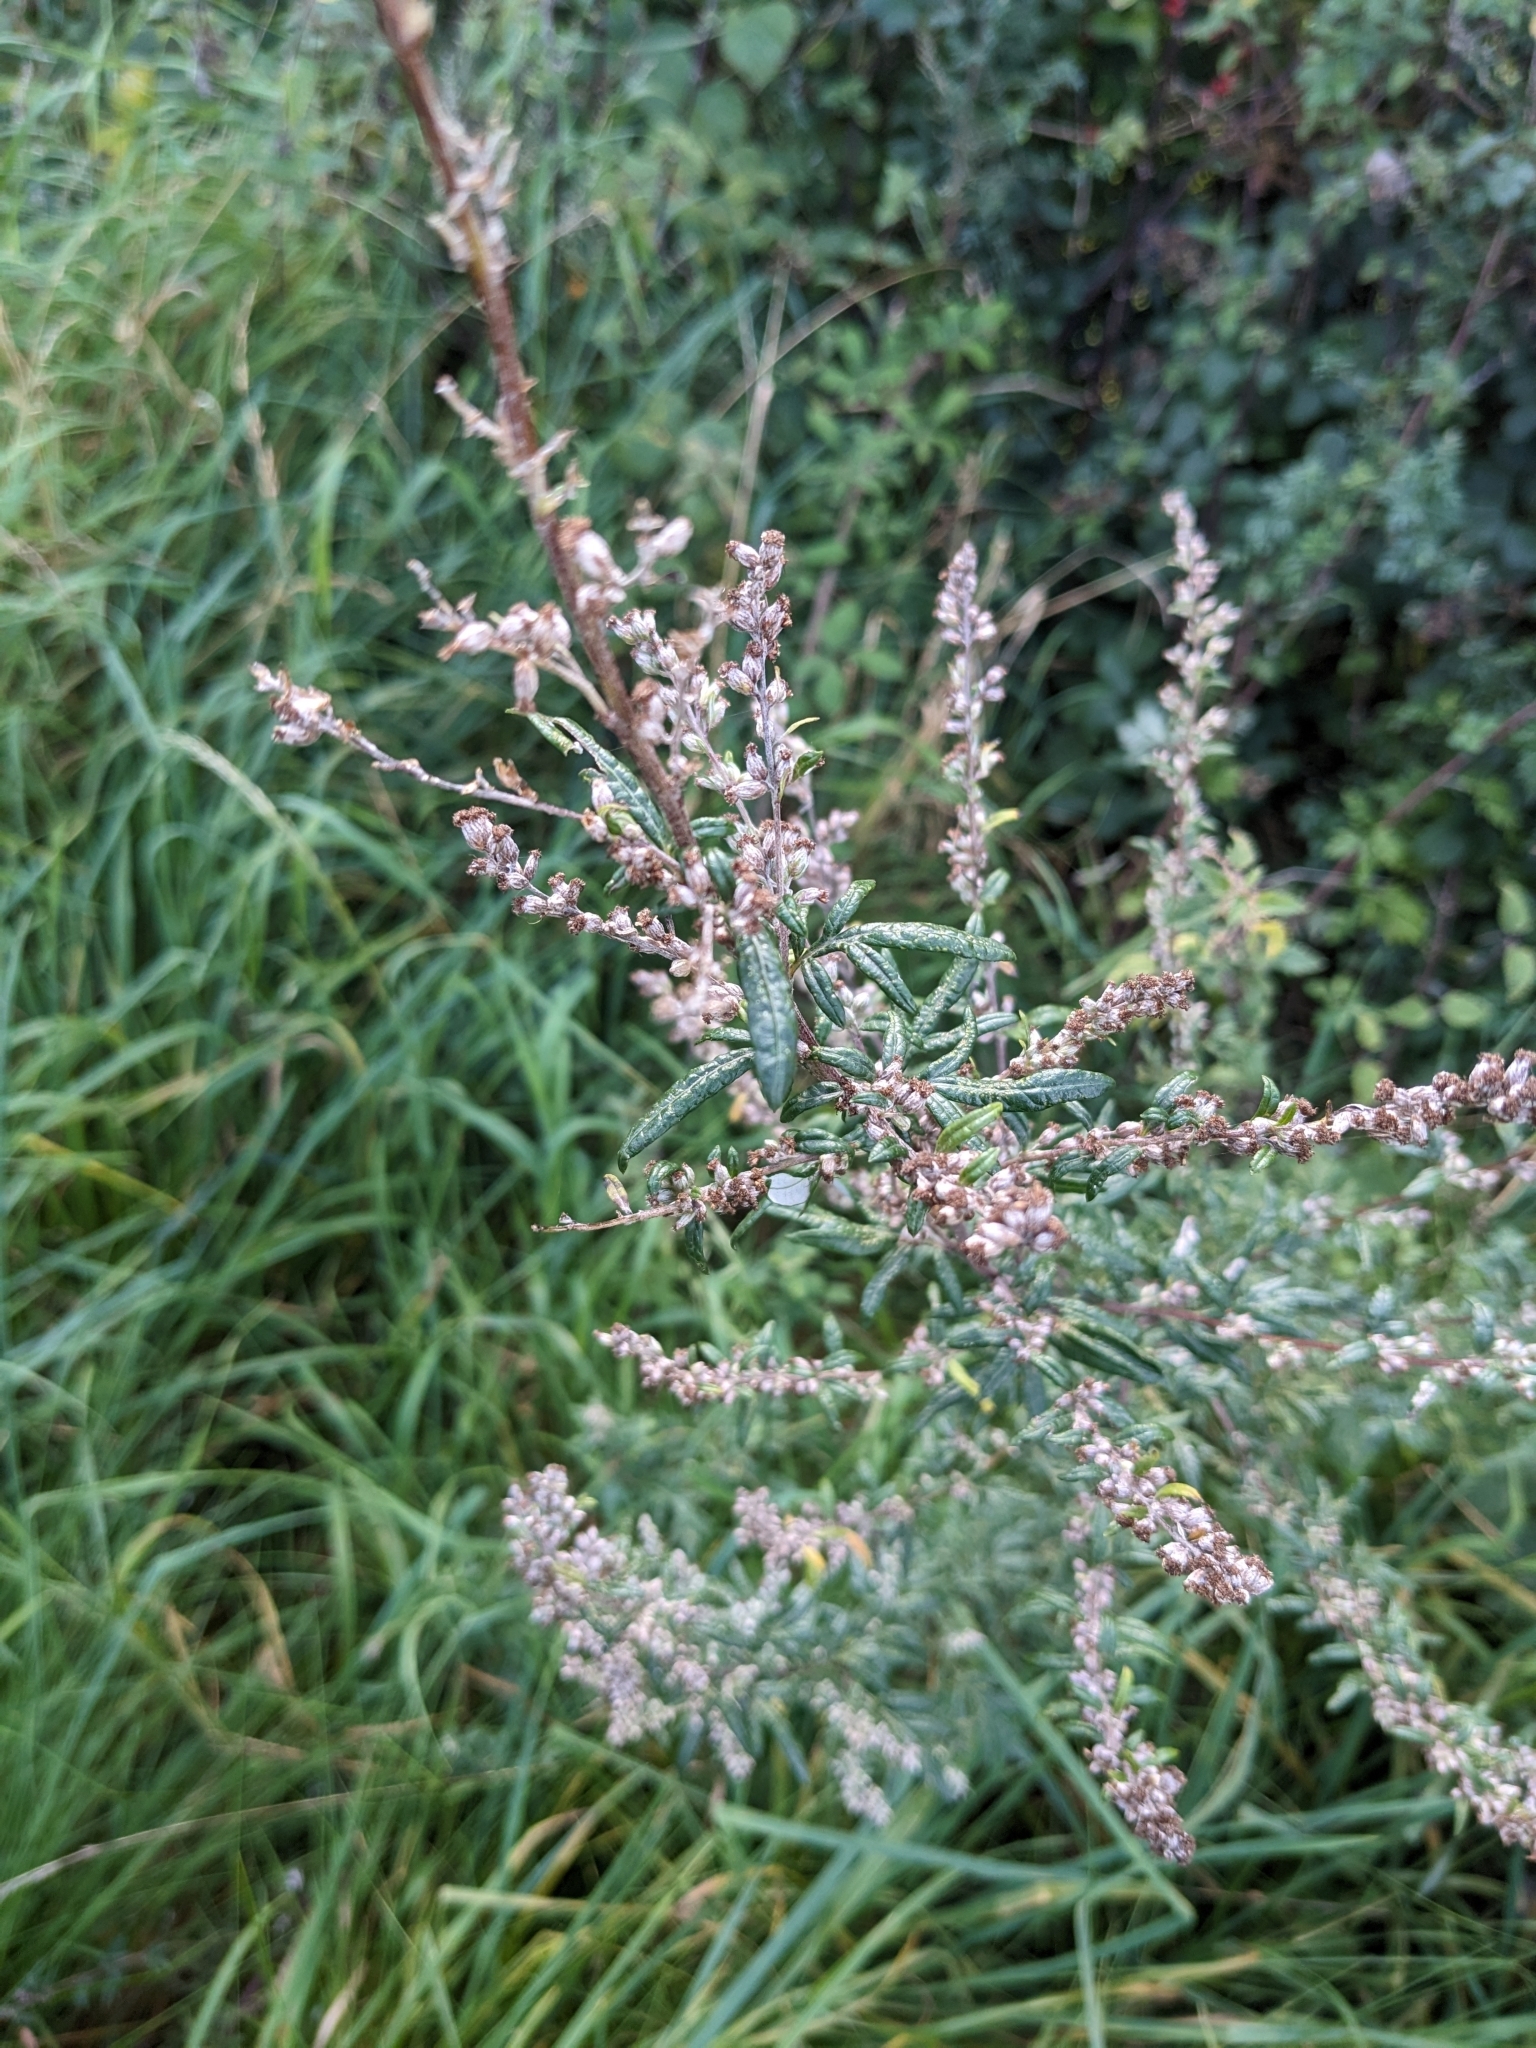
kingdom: Plantae
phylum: Tracheophyta
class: Magnoliopsida
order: Asterales
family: Asteraceae
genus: Artemisia
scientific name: Artemisia vulgaris
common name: Mugwort
